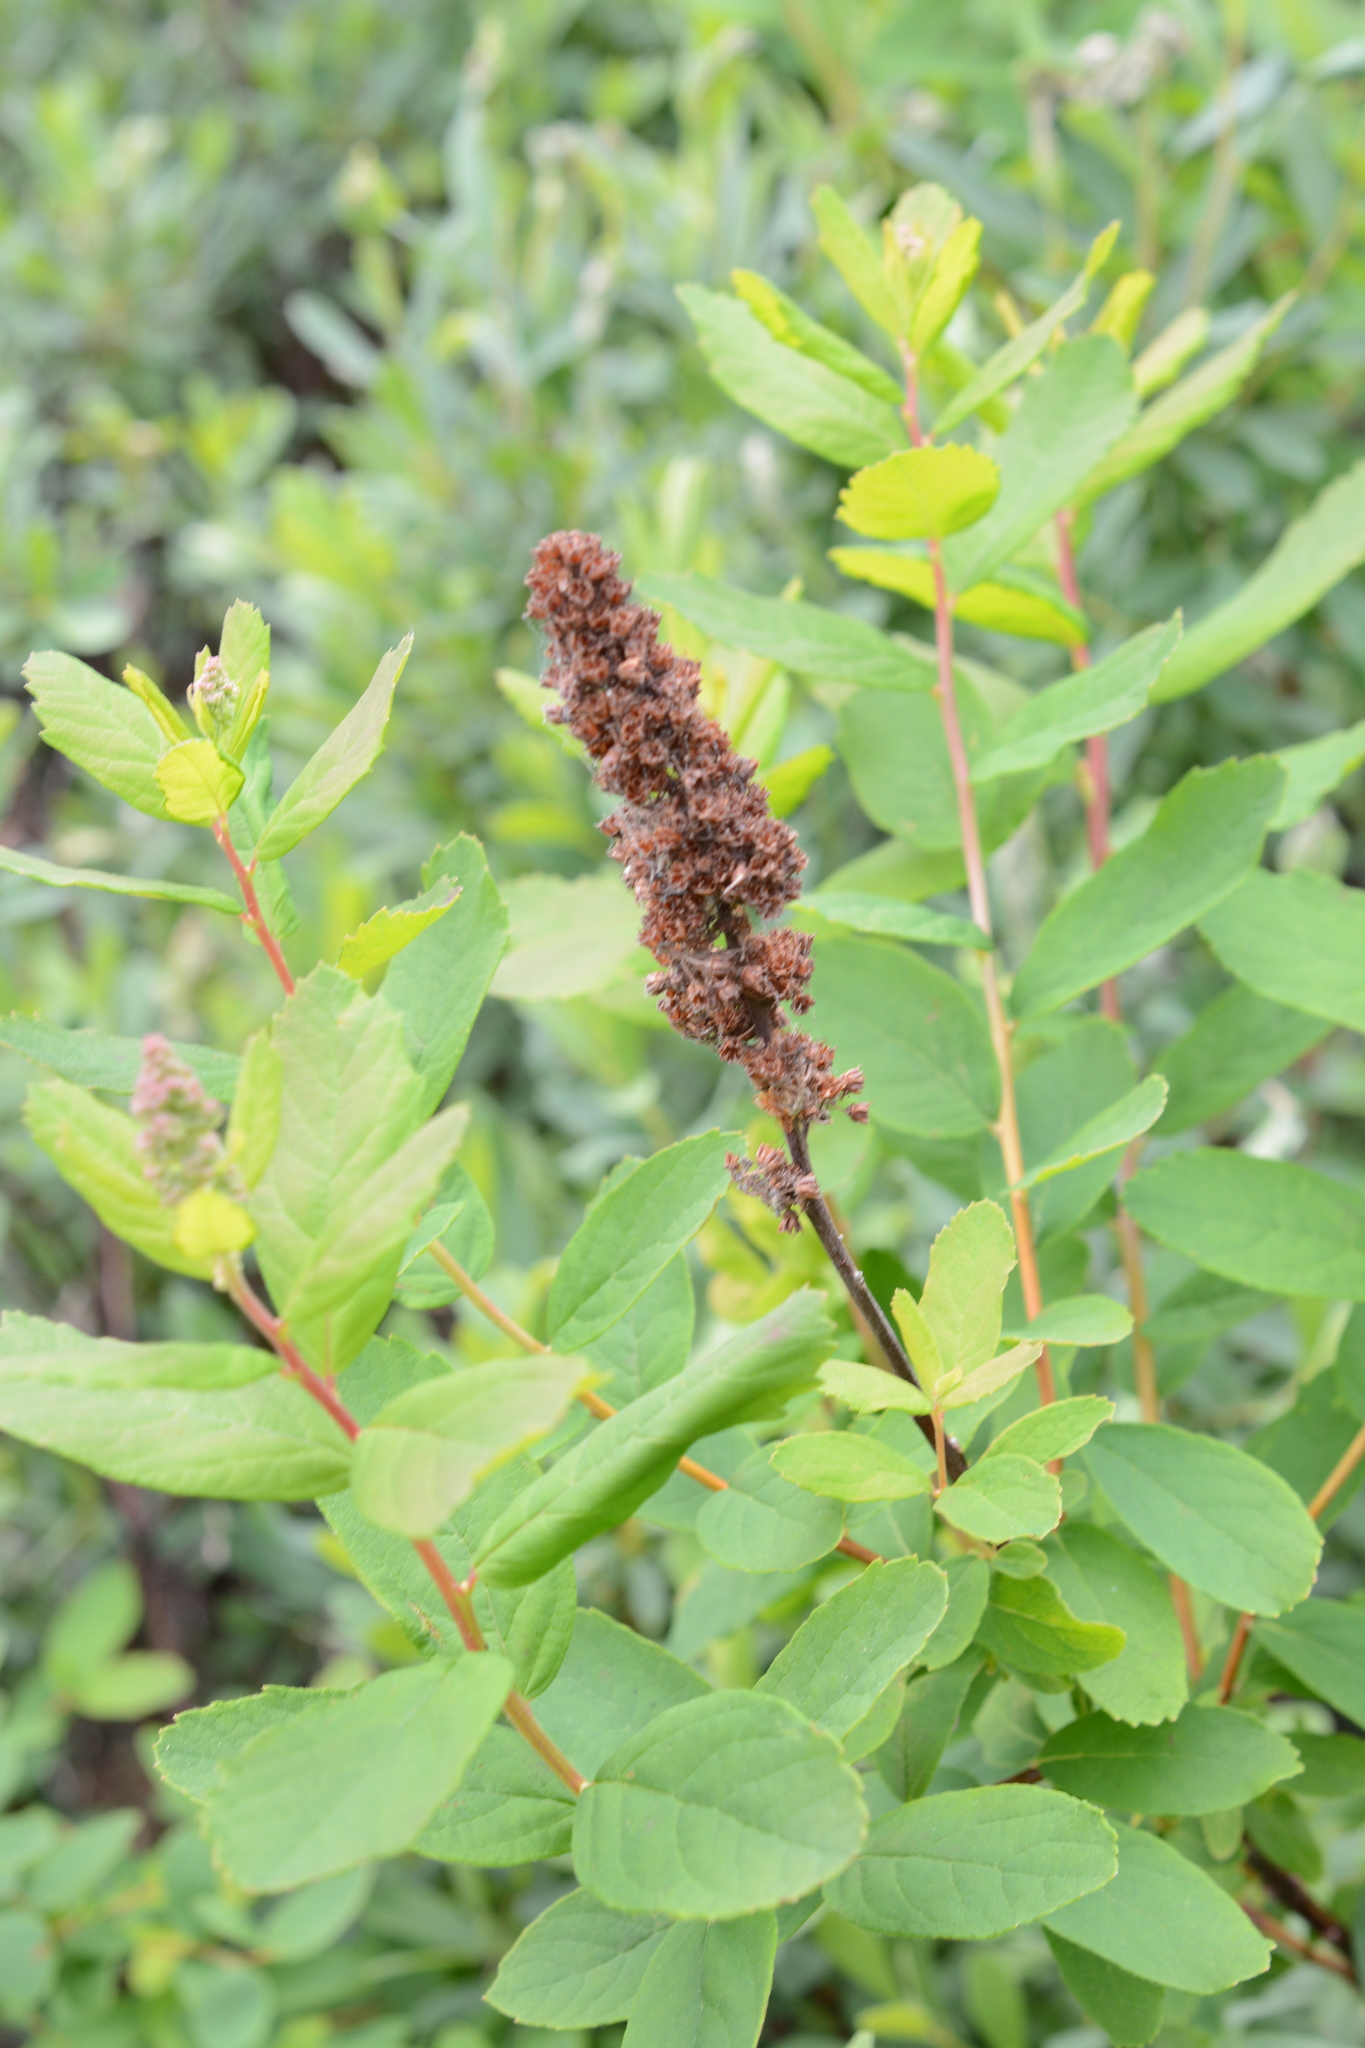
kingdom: Plantae
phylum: Tracheophyta
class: Magnoliopsida
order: Rosales
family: Rosaceae
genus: Spiraea
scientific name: Spiraea douglasii
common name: Steeplebush
